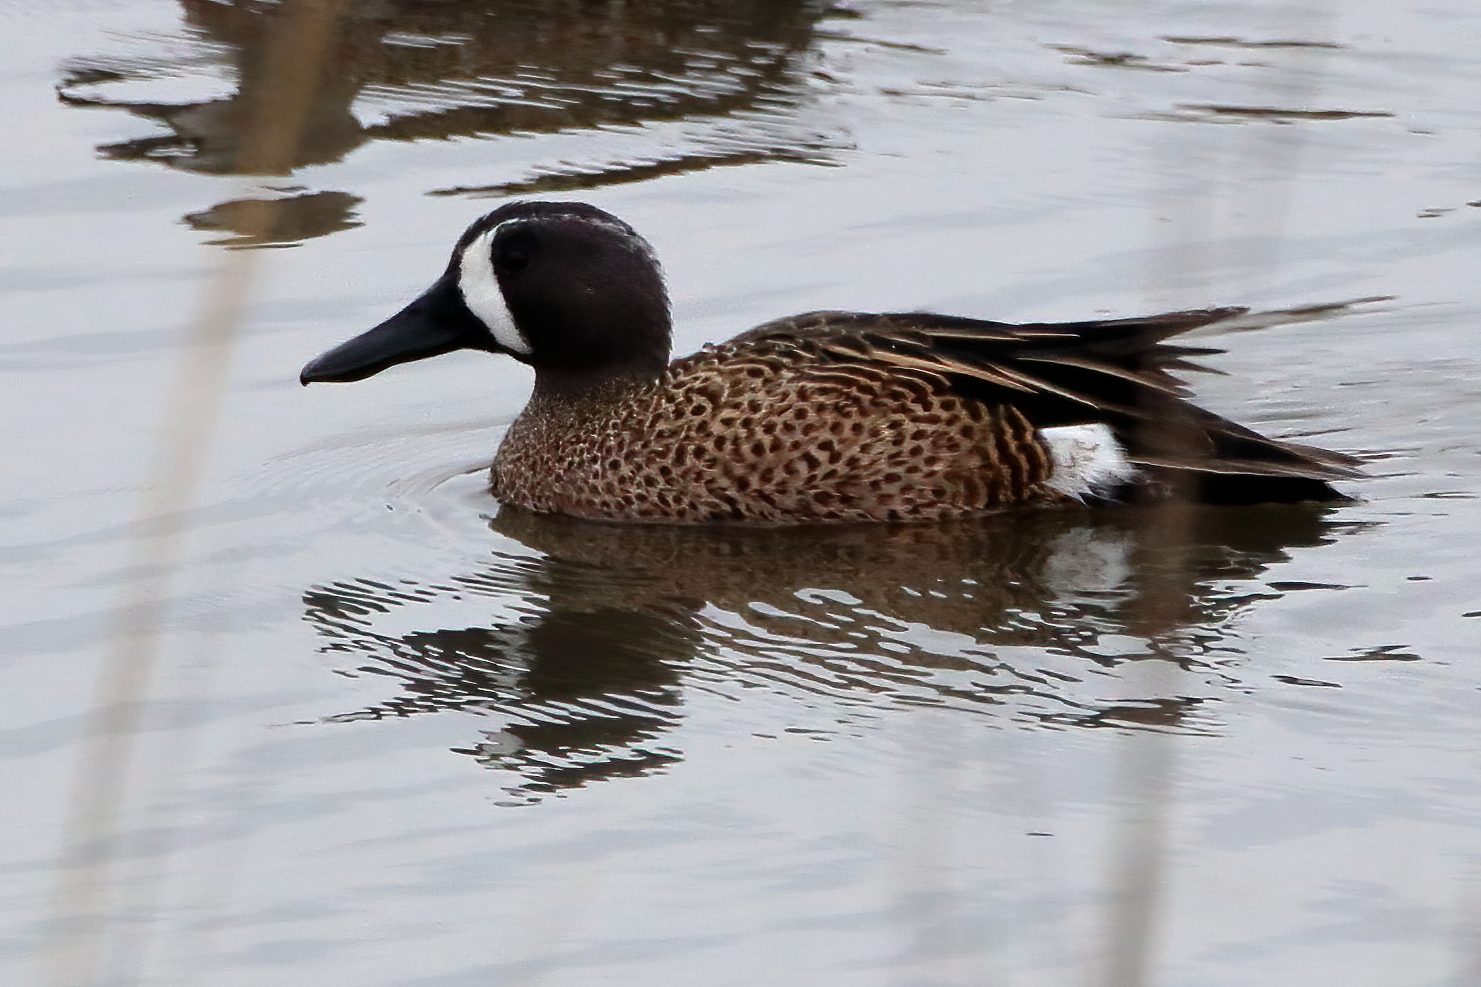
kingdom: Animalia
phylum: Chordata
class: Aves
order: Anseriformes
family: Anatidae
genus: Spatula
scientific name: Spatula discors
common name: Blue-winged teal
